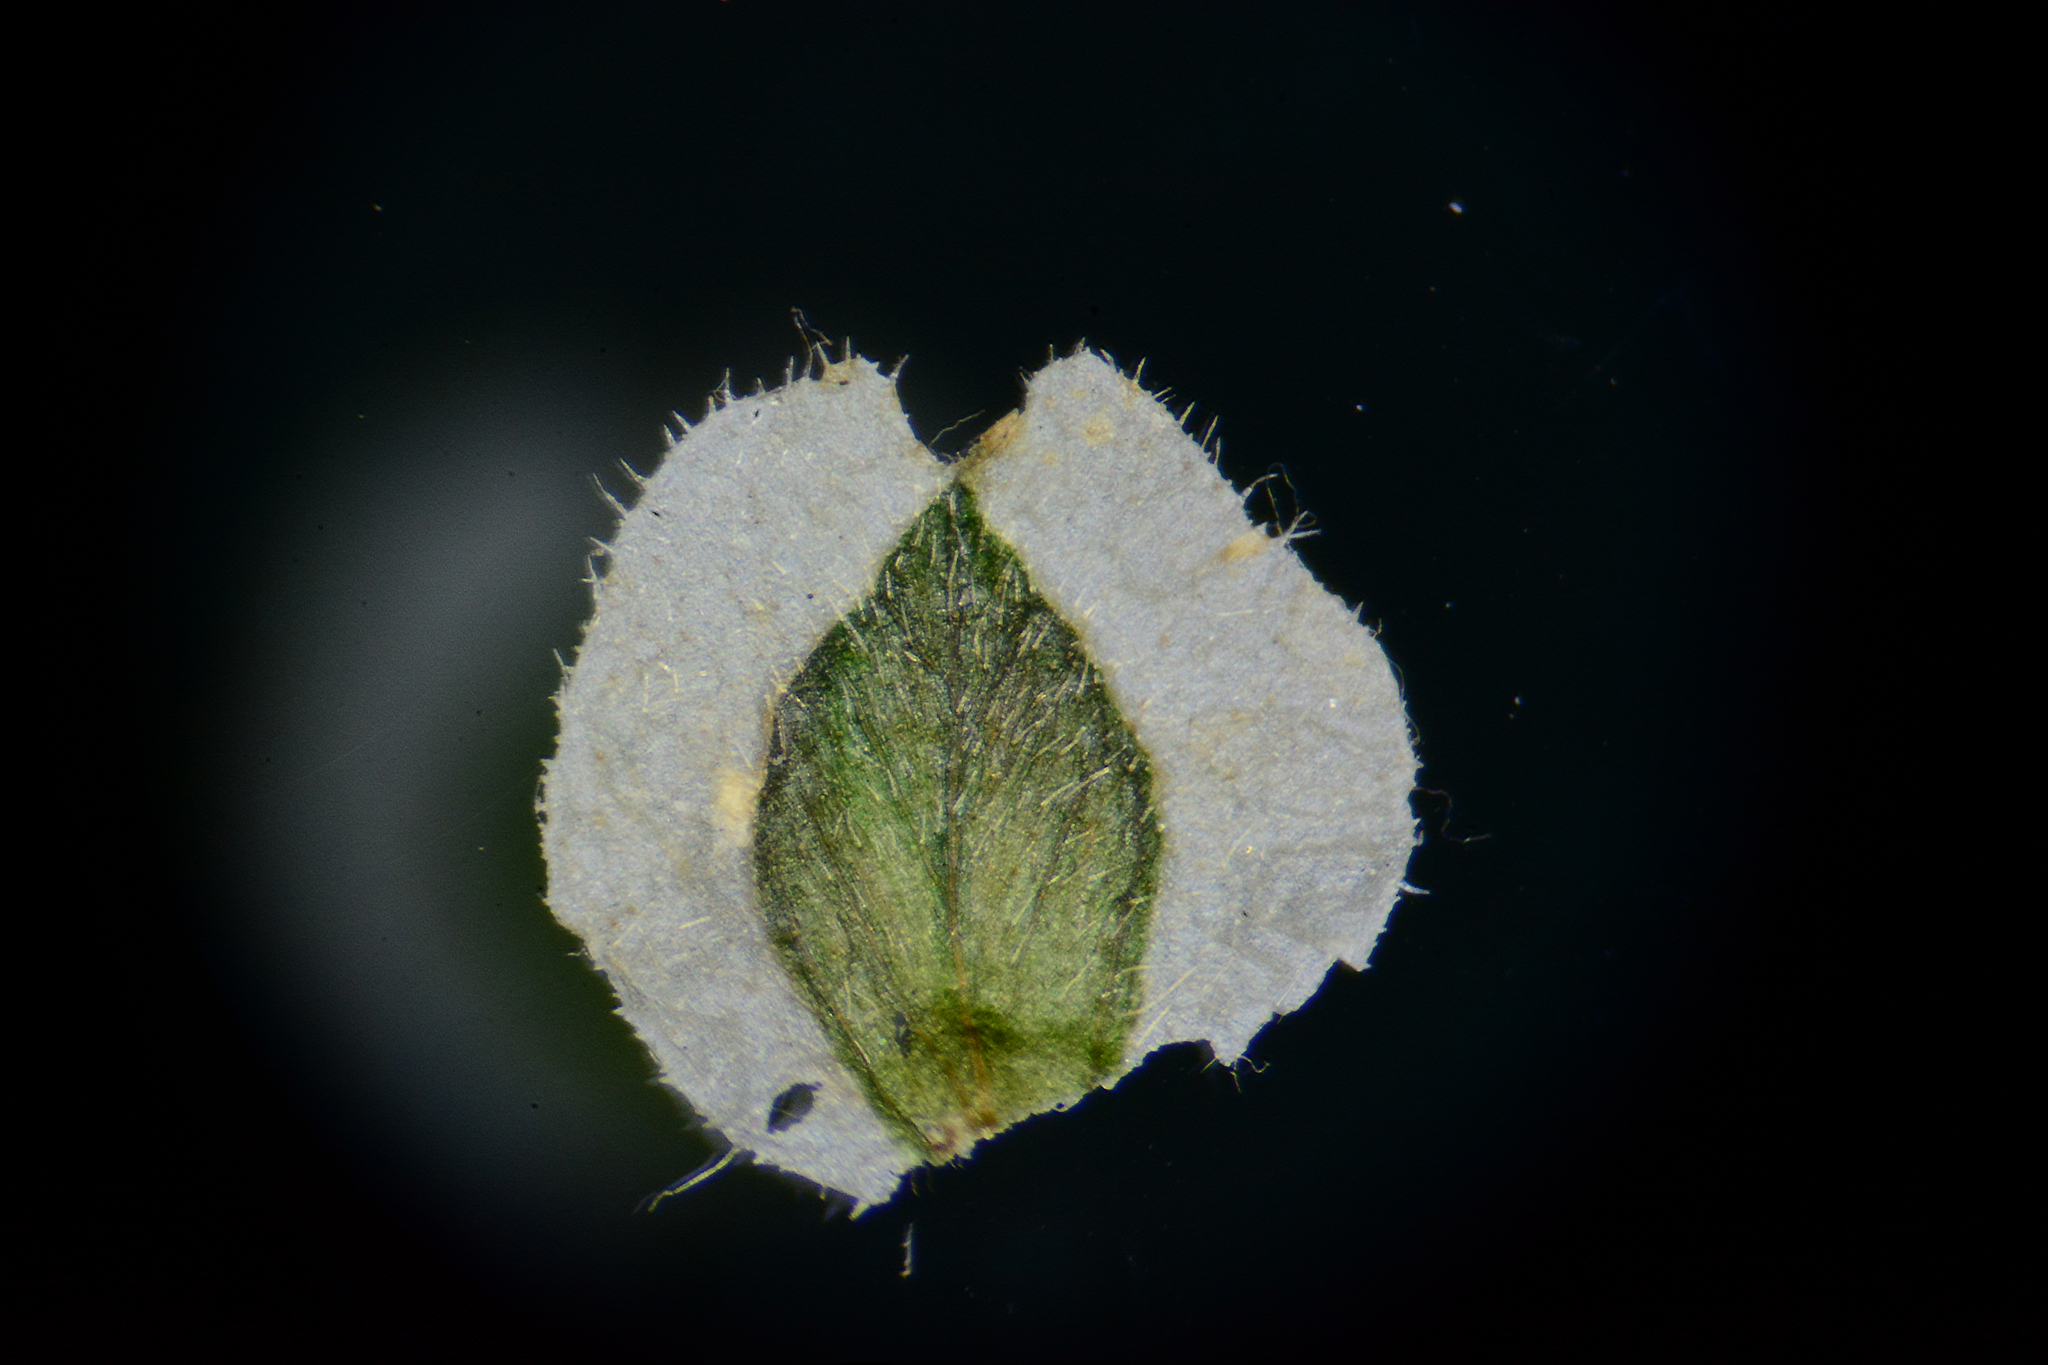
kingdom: Plantae
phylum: Tracheophyta
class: Magnoliopsida
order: Lamiales
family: Acanthaceae
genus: Rungia
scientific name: Rungia pectinata
